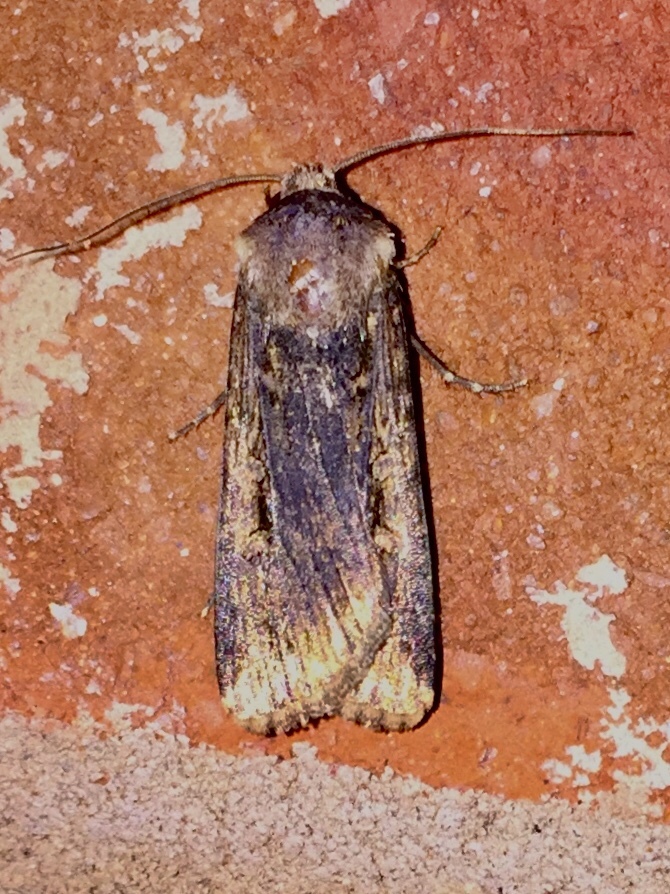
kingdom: Animalia
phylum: Arthropoda
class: Insecta
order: Lepidoptera
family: Noctuidae
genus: Feltia
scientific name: Feltia subterranea
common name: Granulate cutworm
